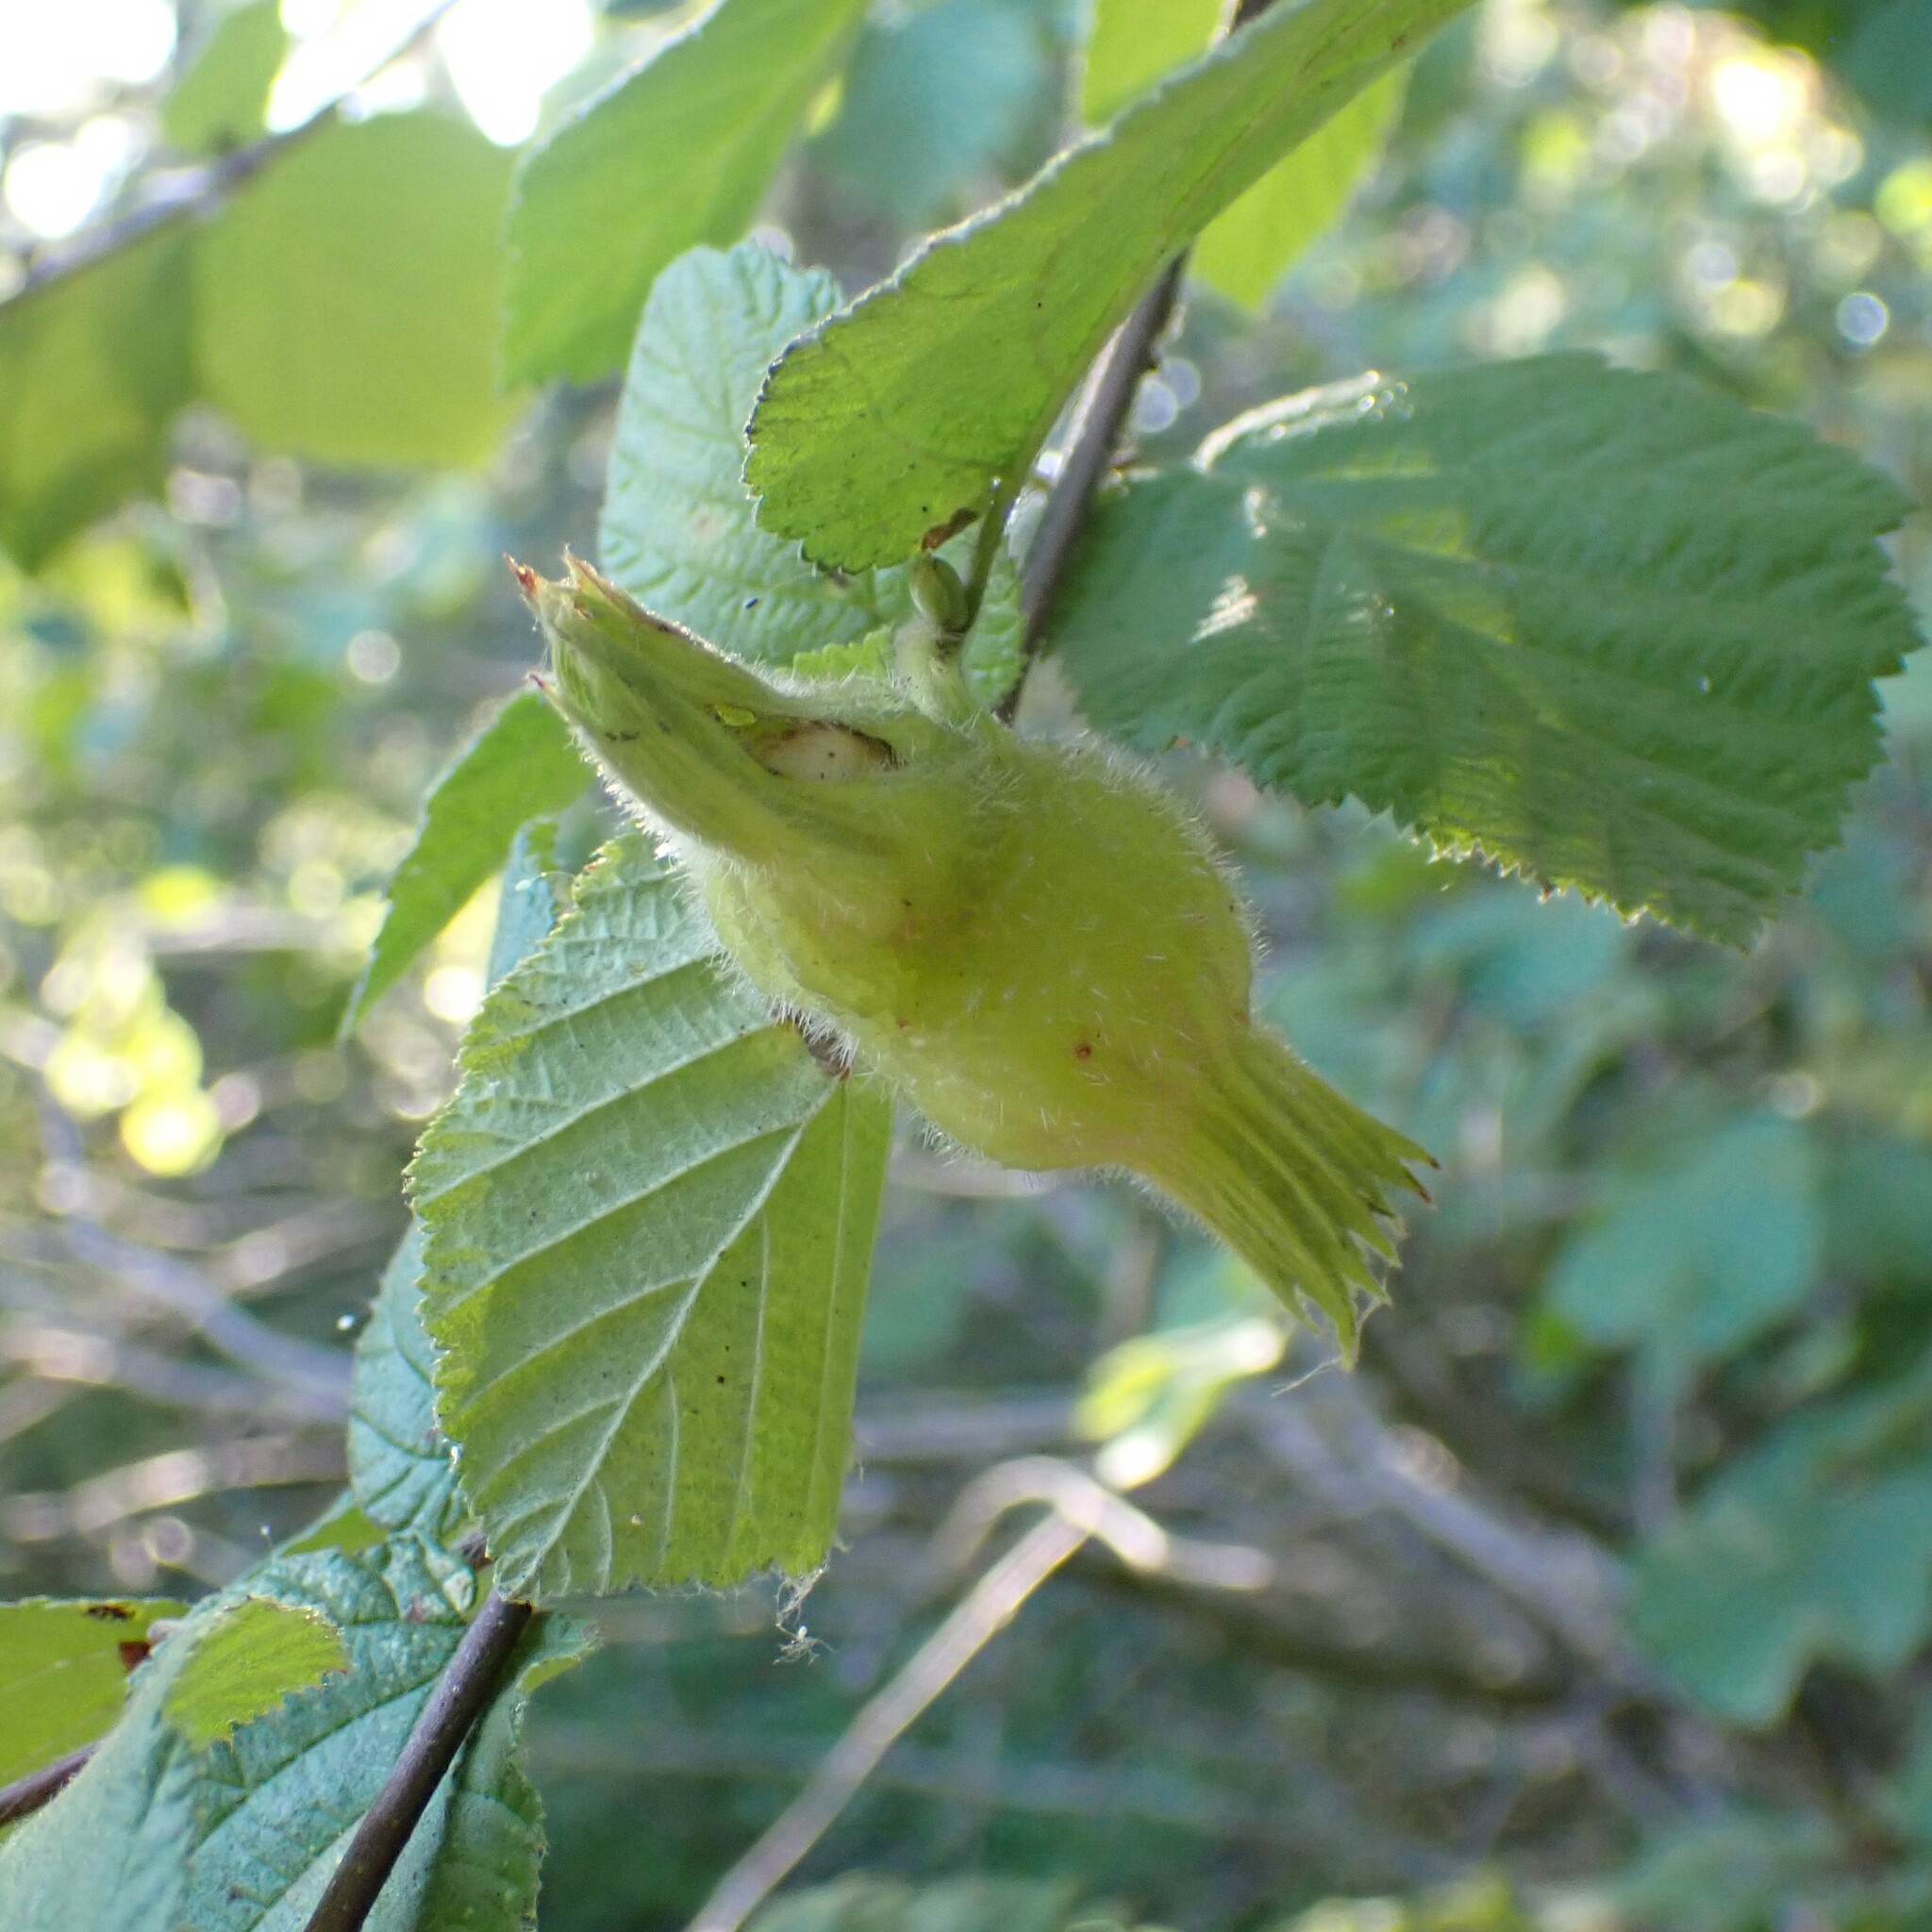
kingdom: Plantae
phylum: Tracheophyta
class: Magnoliopsida
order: Fagales
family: Betulaceae
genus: Corylus
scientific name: Corylus cornuta
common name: Beaked hazel
